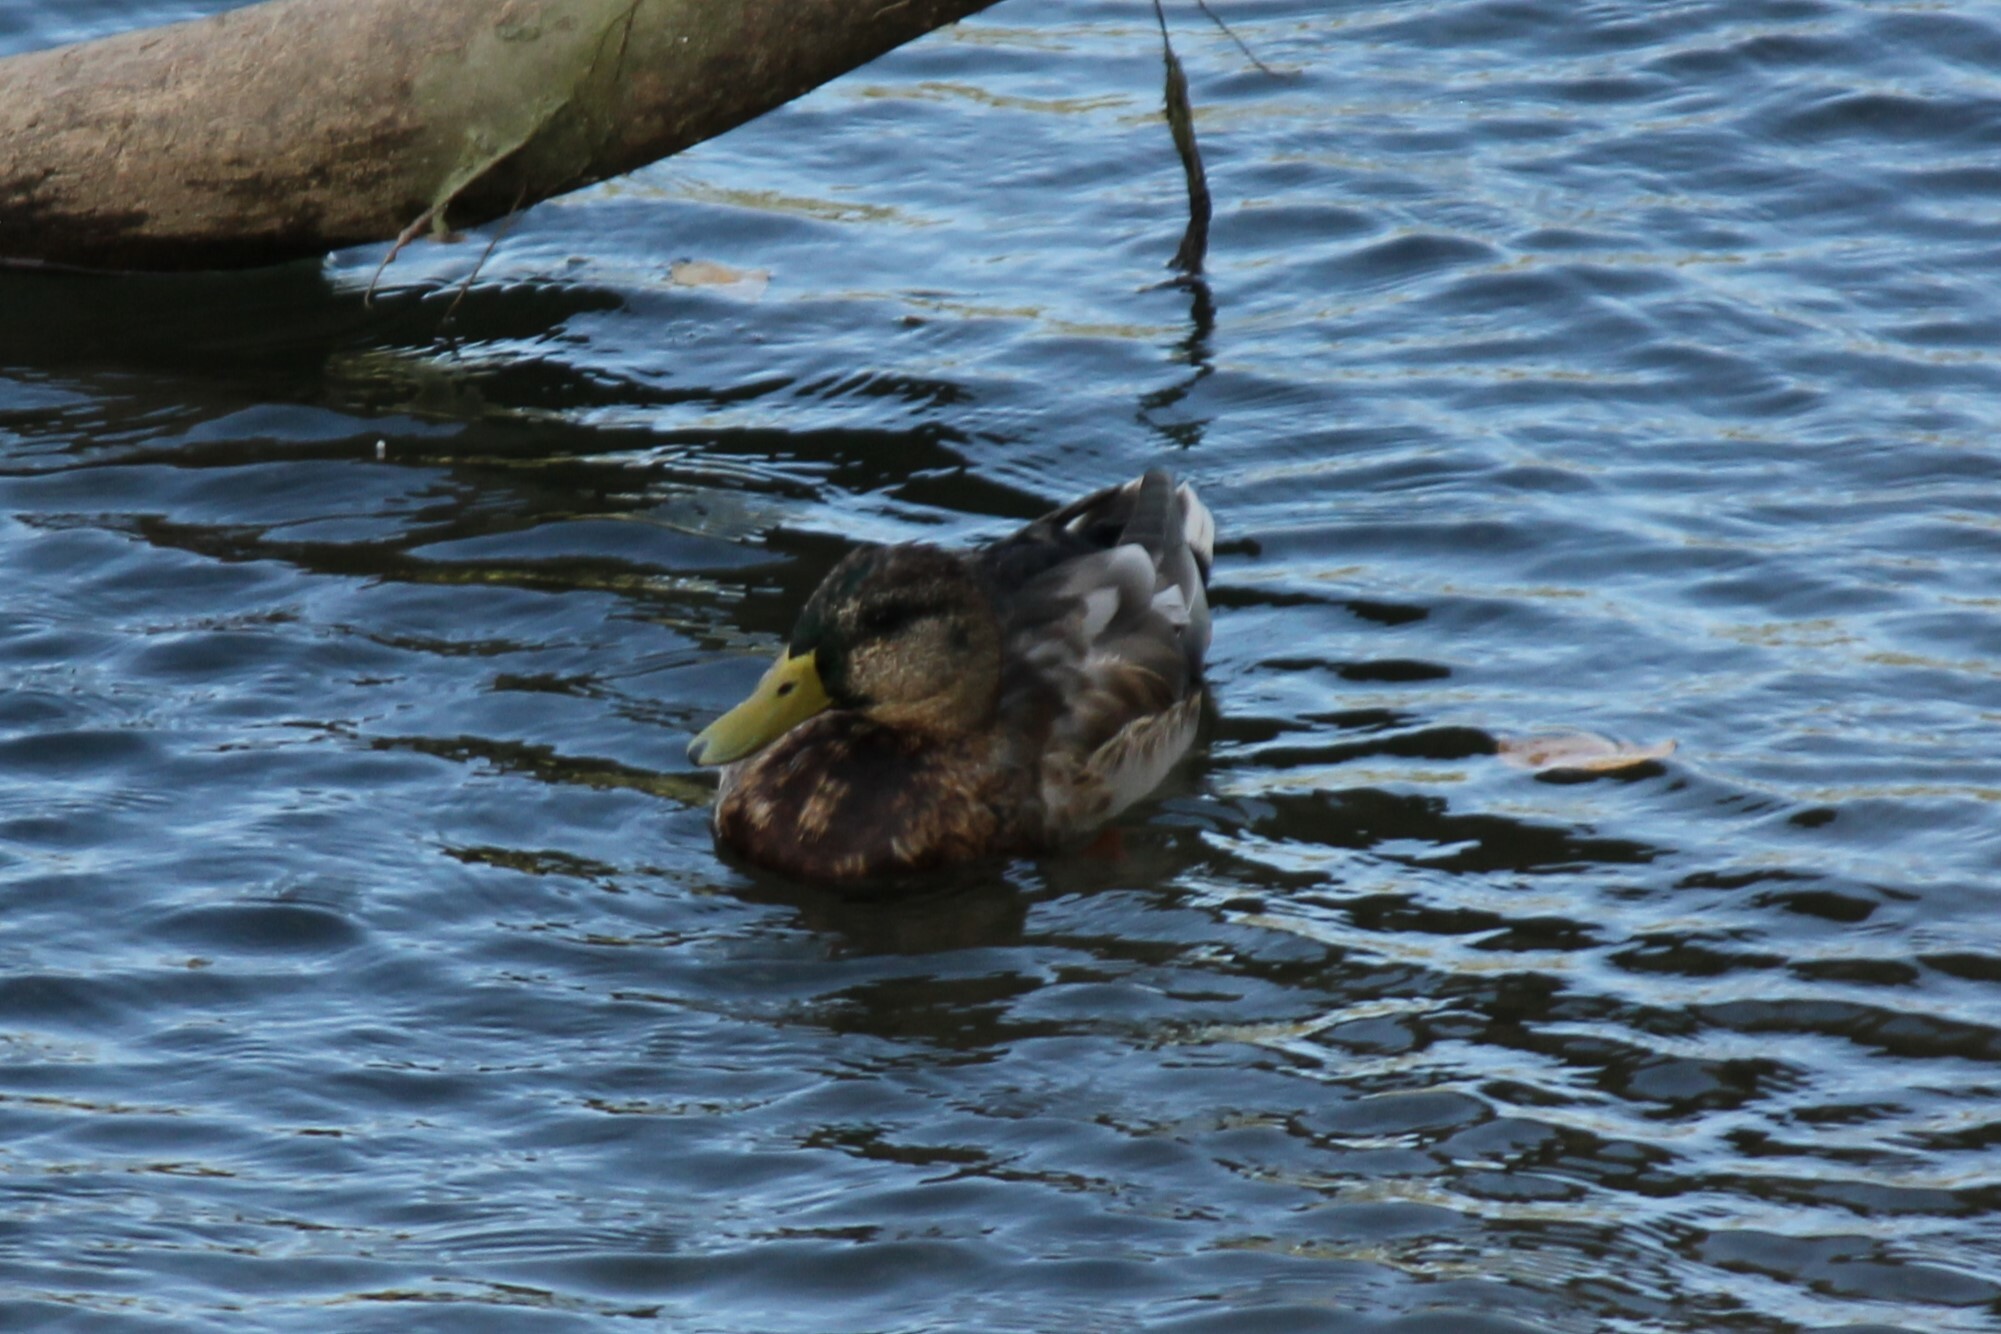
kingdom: Animalia
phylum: Chordata
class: Aves
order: Anseriformes
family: Anatidae
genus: Anas
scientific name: Anas platyrhynchos
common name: Mallard
